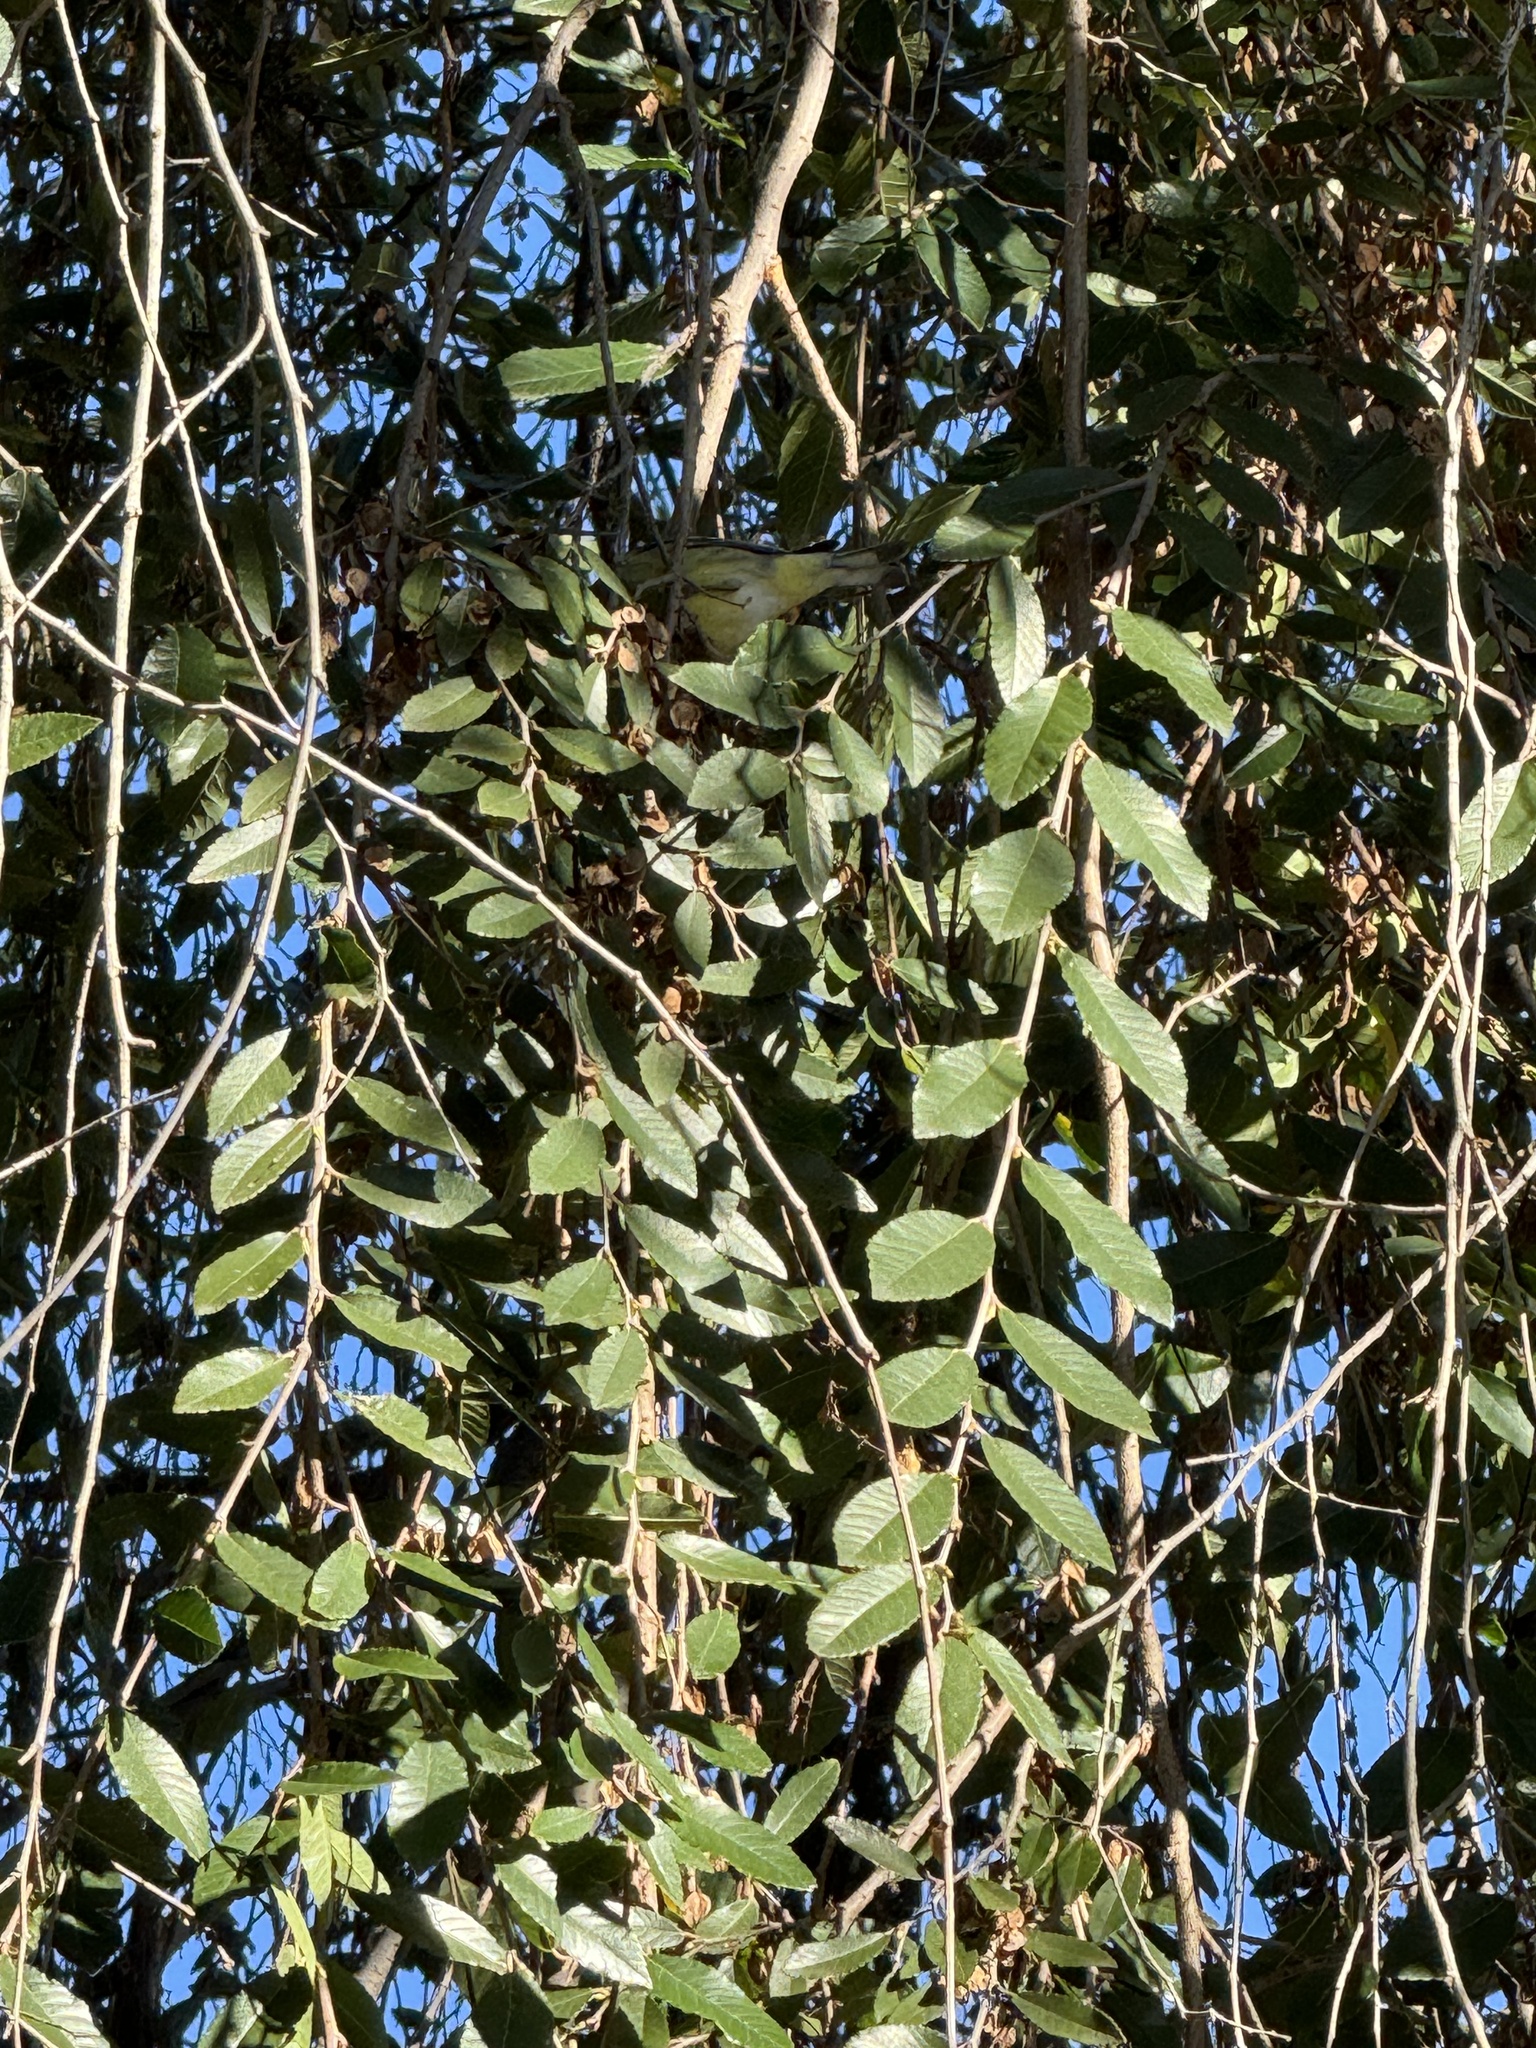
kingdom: Animalia
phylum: Chordata
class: Aves
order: Passeriformes
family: Fringillidae
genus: Spinus
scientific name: Spinus psaltria
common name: Lesser goldfinch
